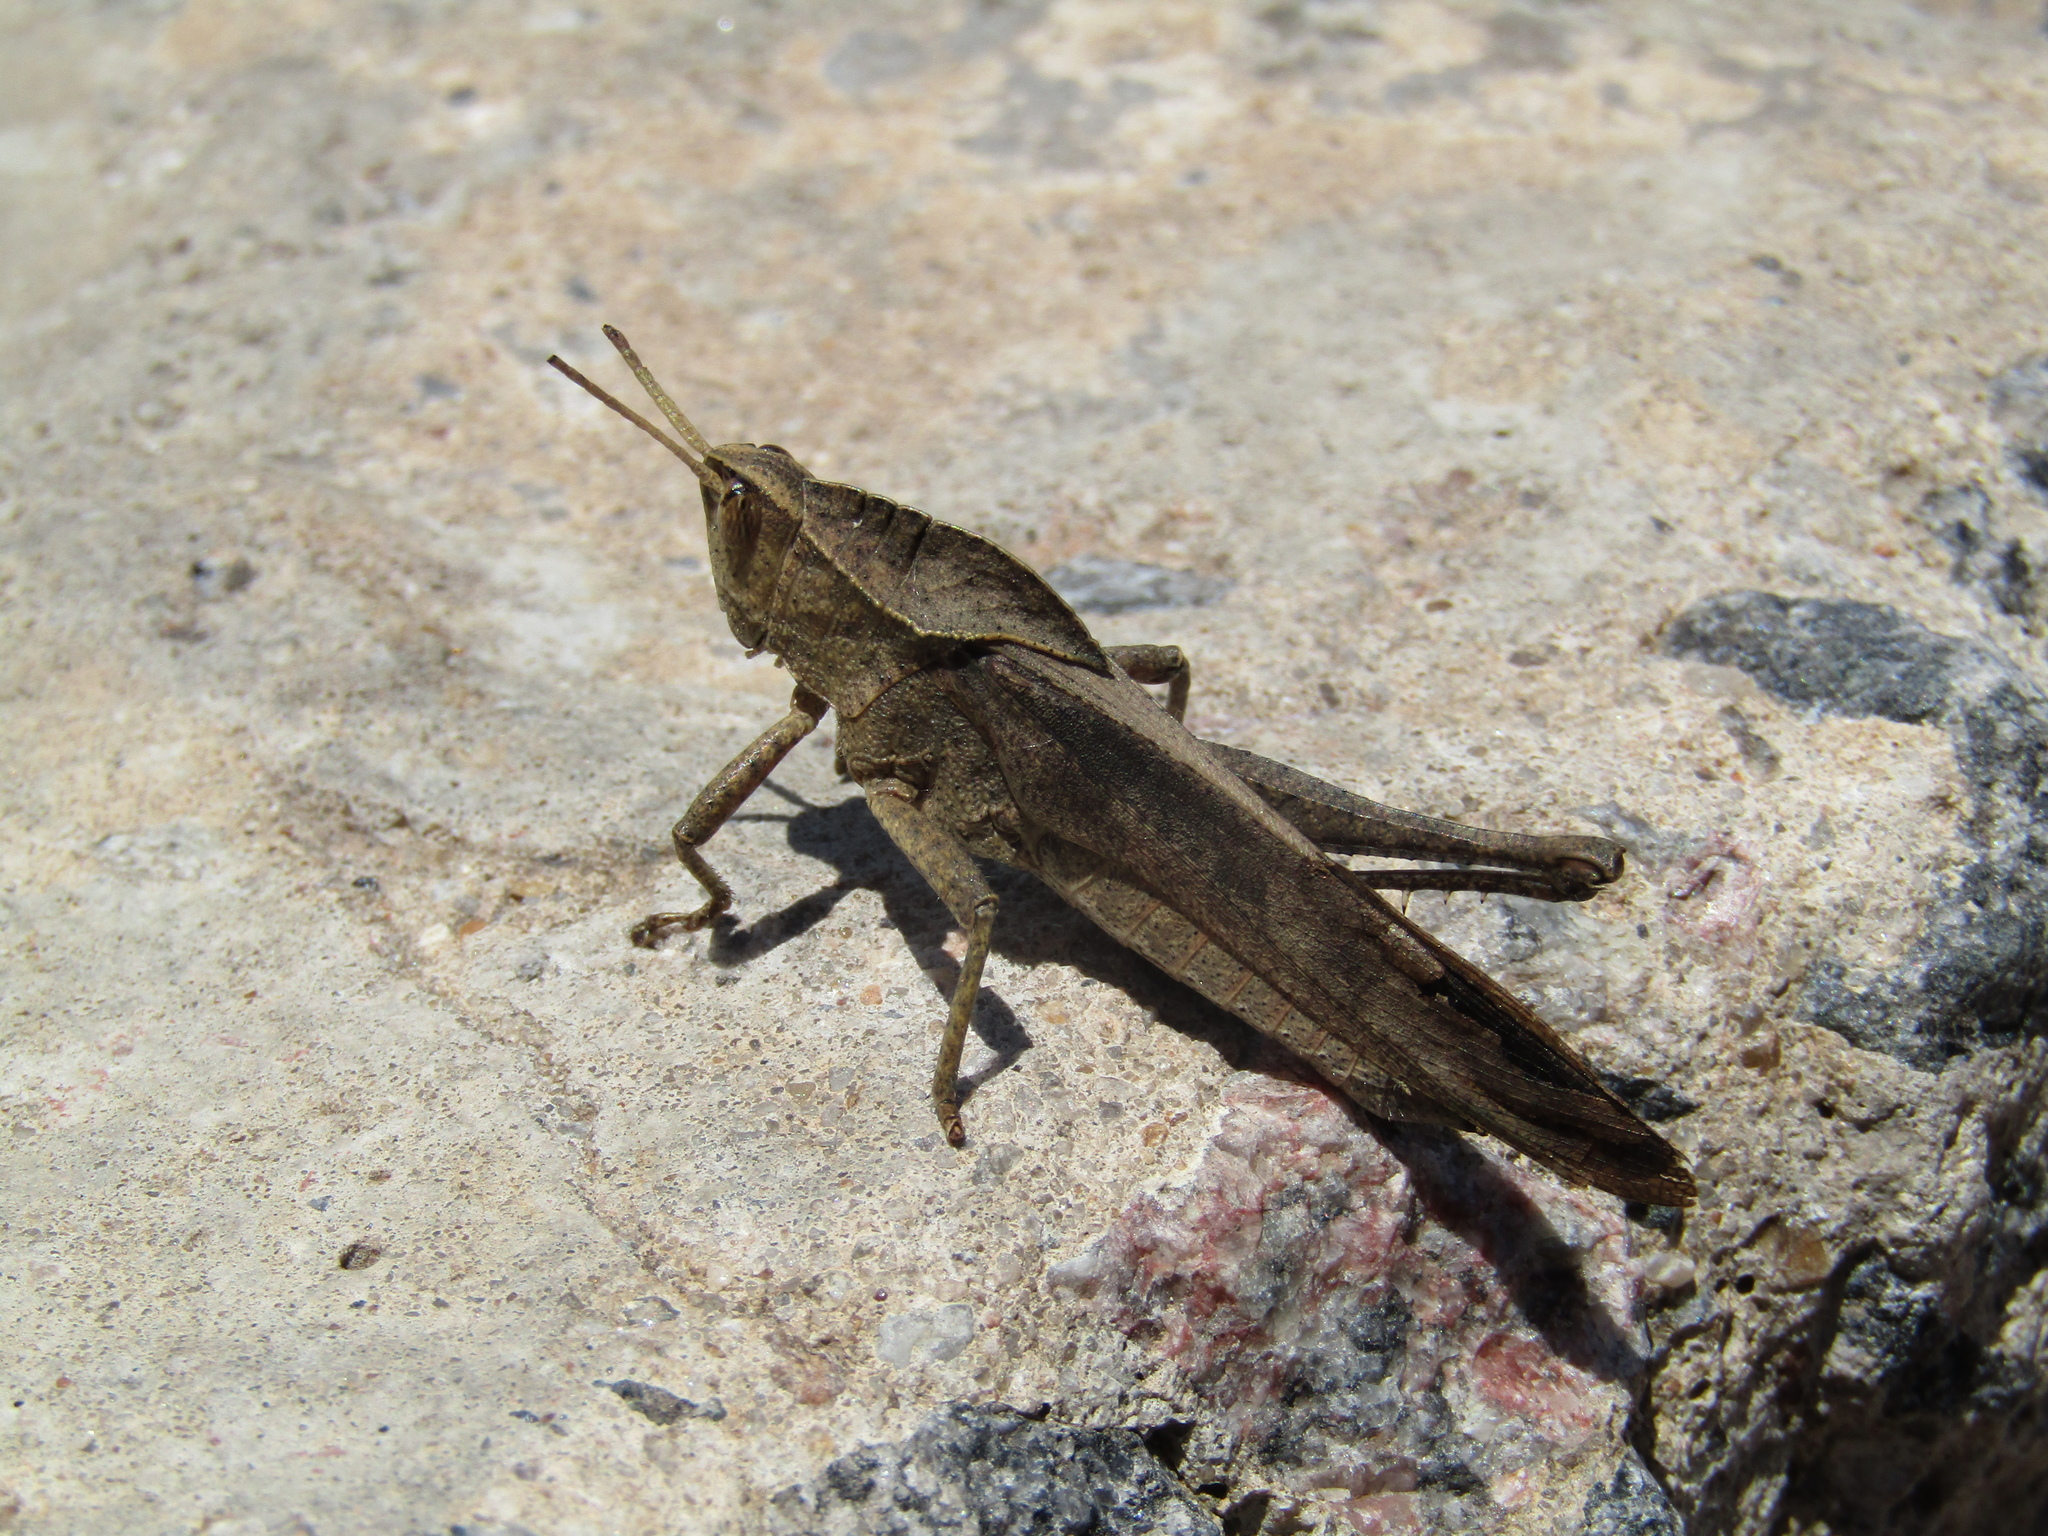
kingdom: Animalia
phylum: Arthropoda
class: Insecta
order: Orthoptera
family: Romaleidae
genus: Xyleus
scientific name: Xyleus discoideus
